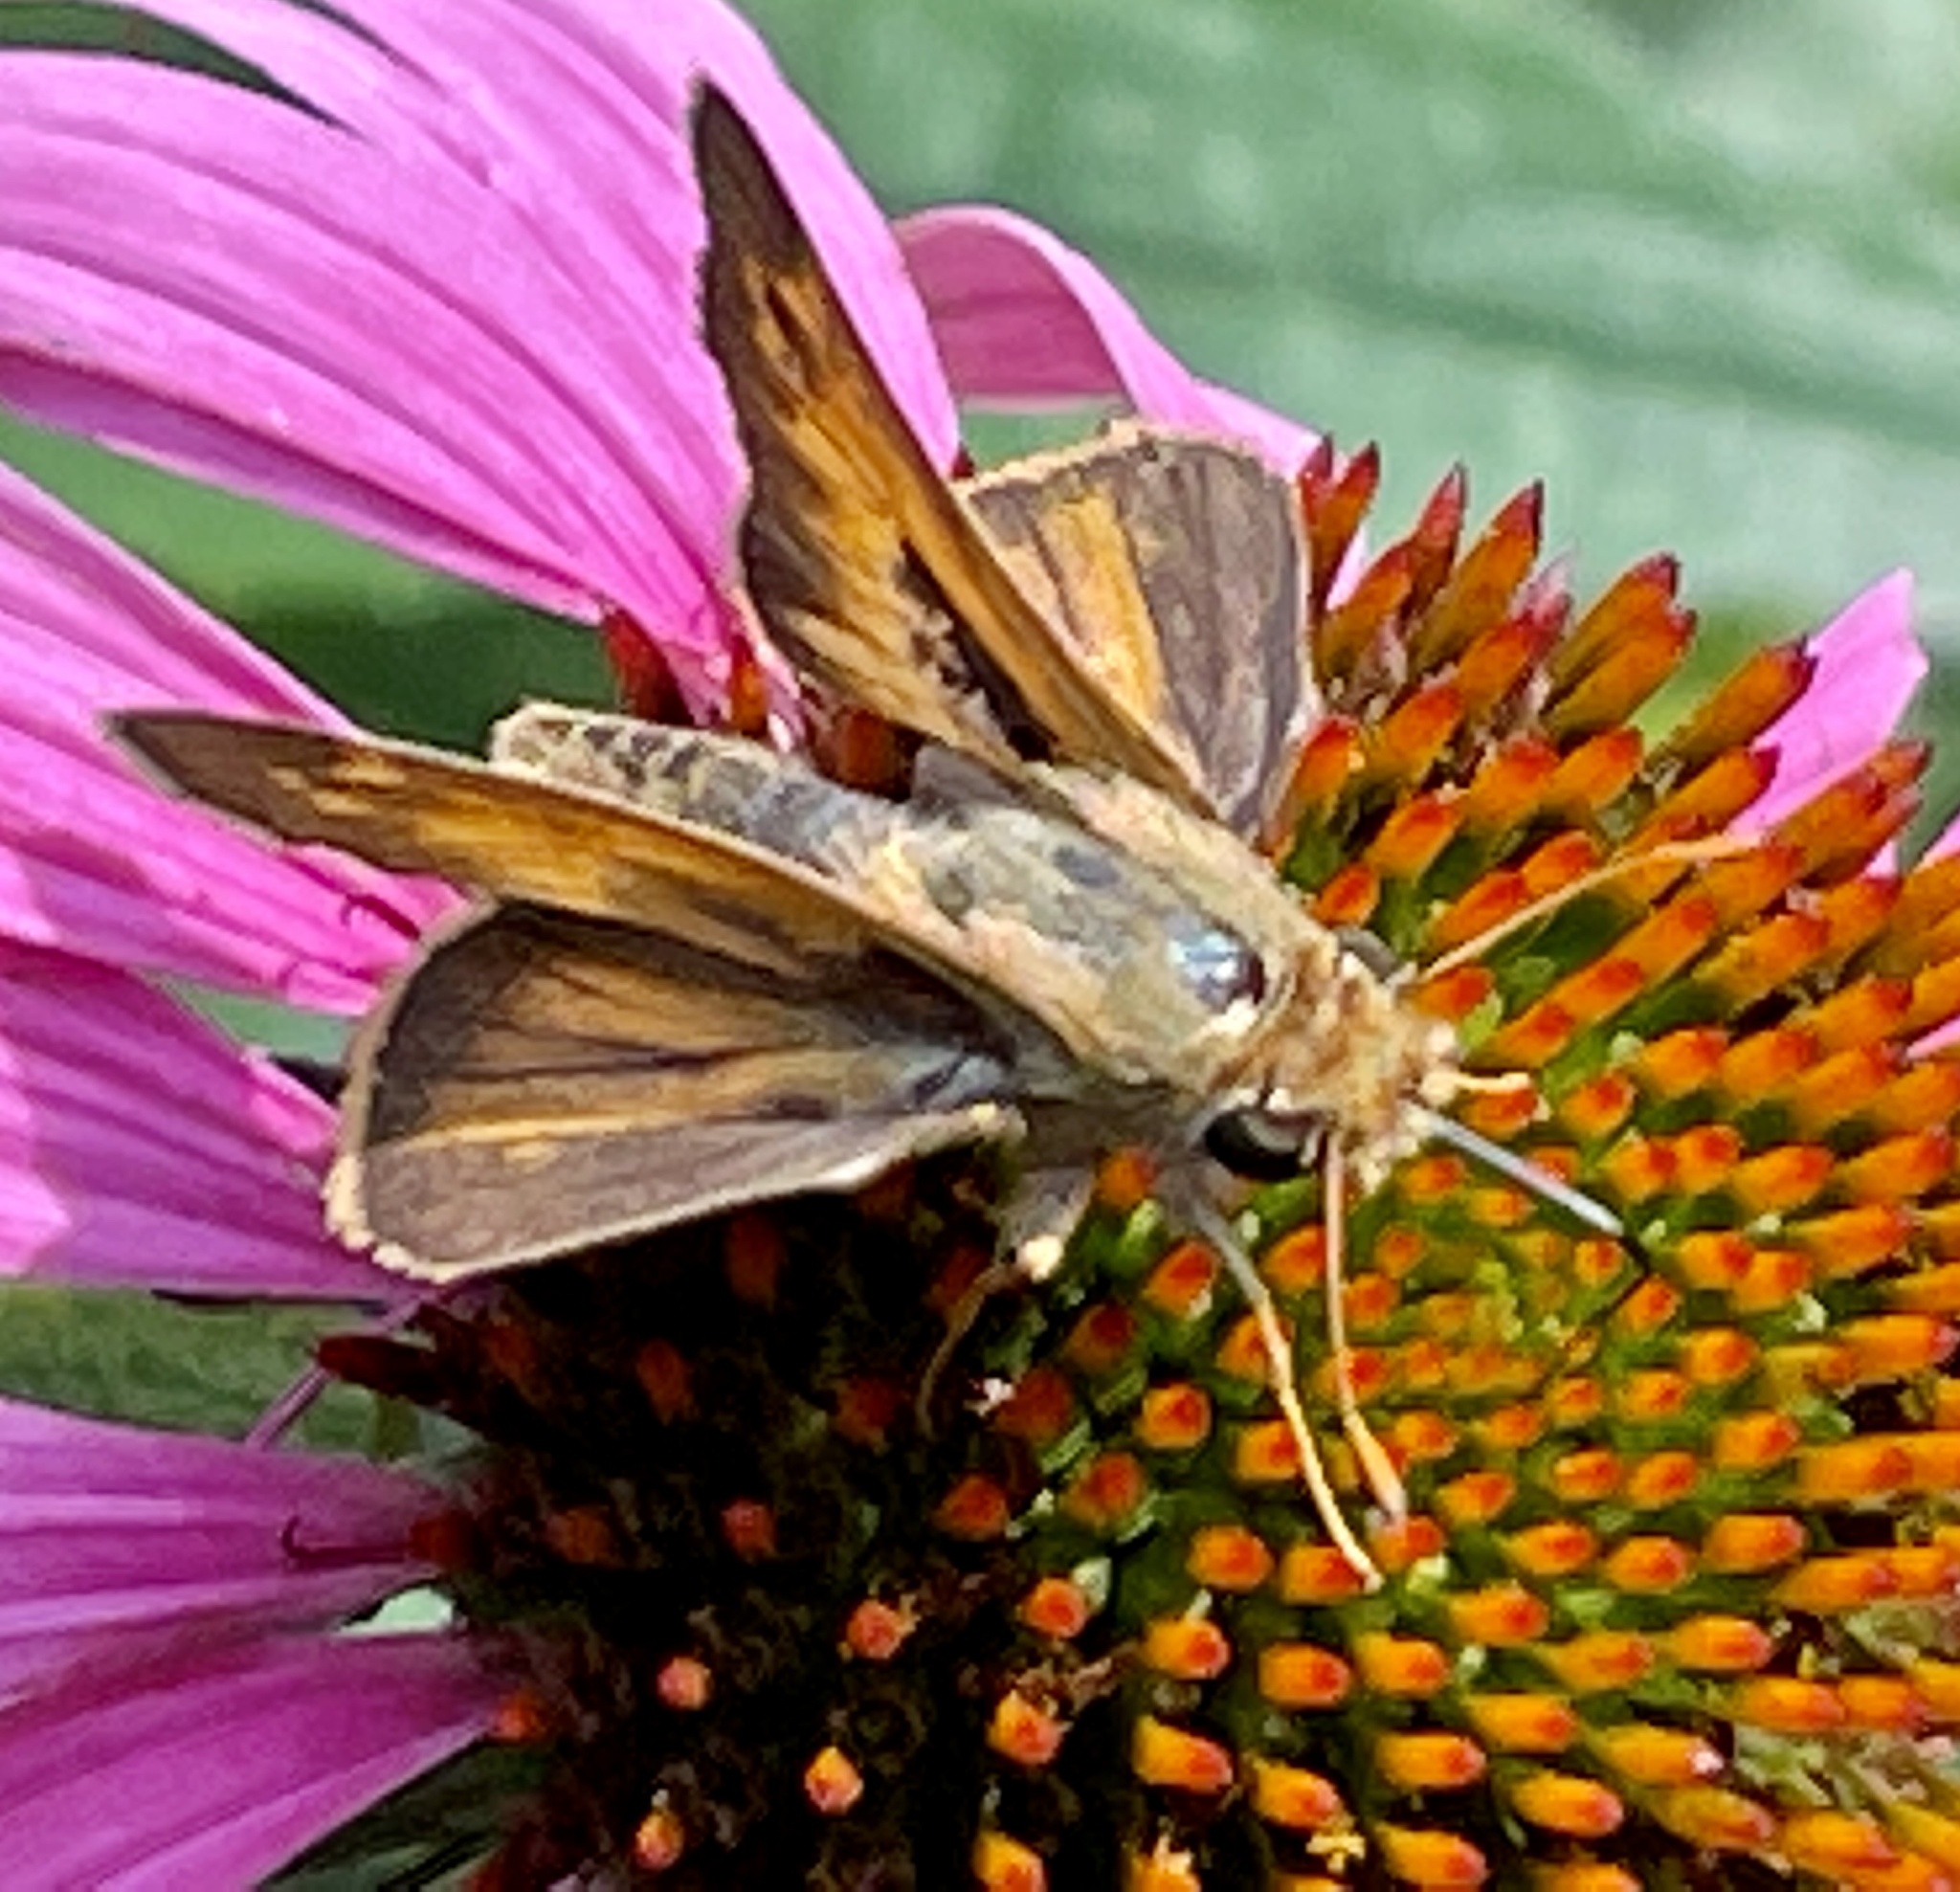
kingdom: Animalia
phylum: Arthropoda
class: Insecta
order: Lepidoptera
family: Hesperiidae
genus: Atalopedes
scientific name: Atalopedes
